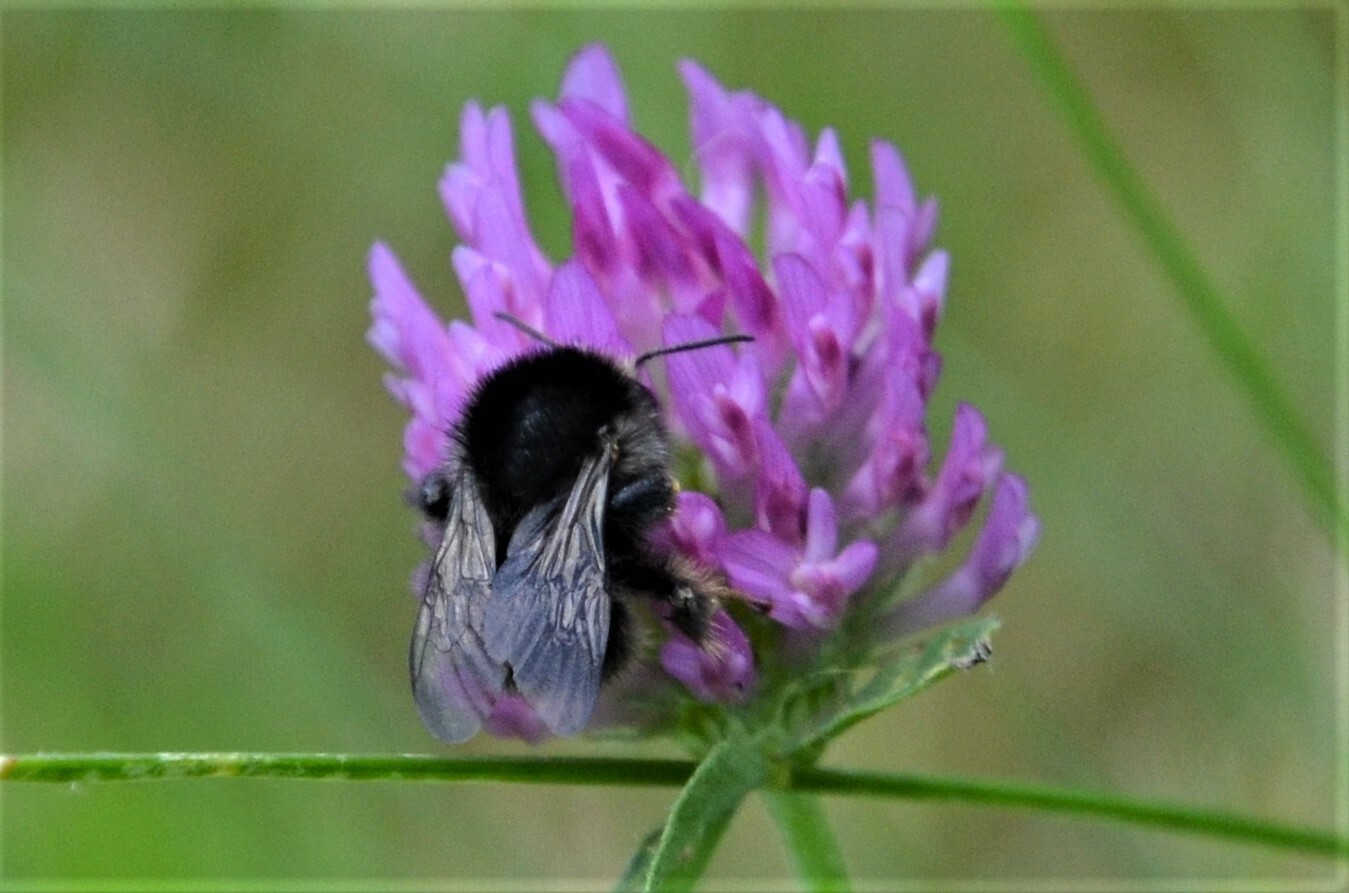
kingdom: Animalia
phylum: Arthropoda
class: Insecta
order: Hymenoptera
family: Apidae
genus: Bombus
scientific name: Bombus humilis
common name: Brown-banded carder-bee
